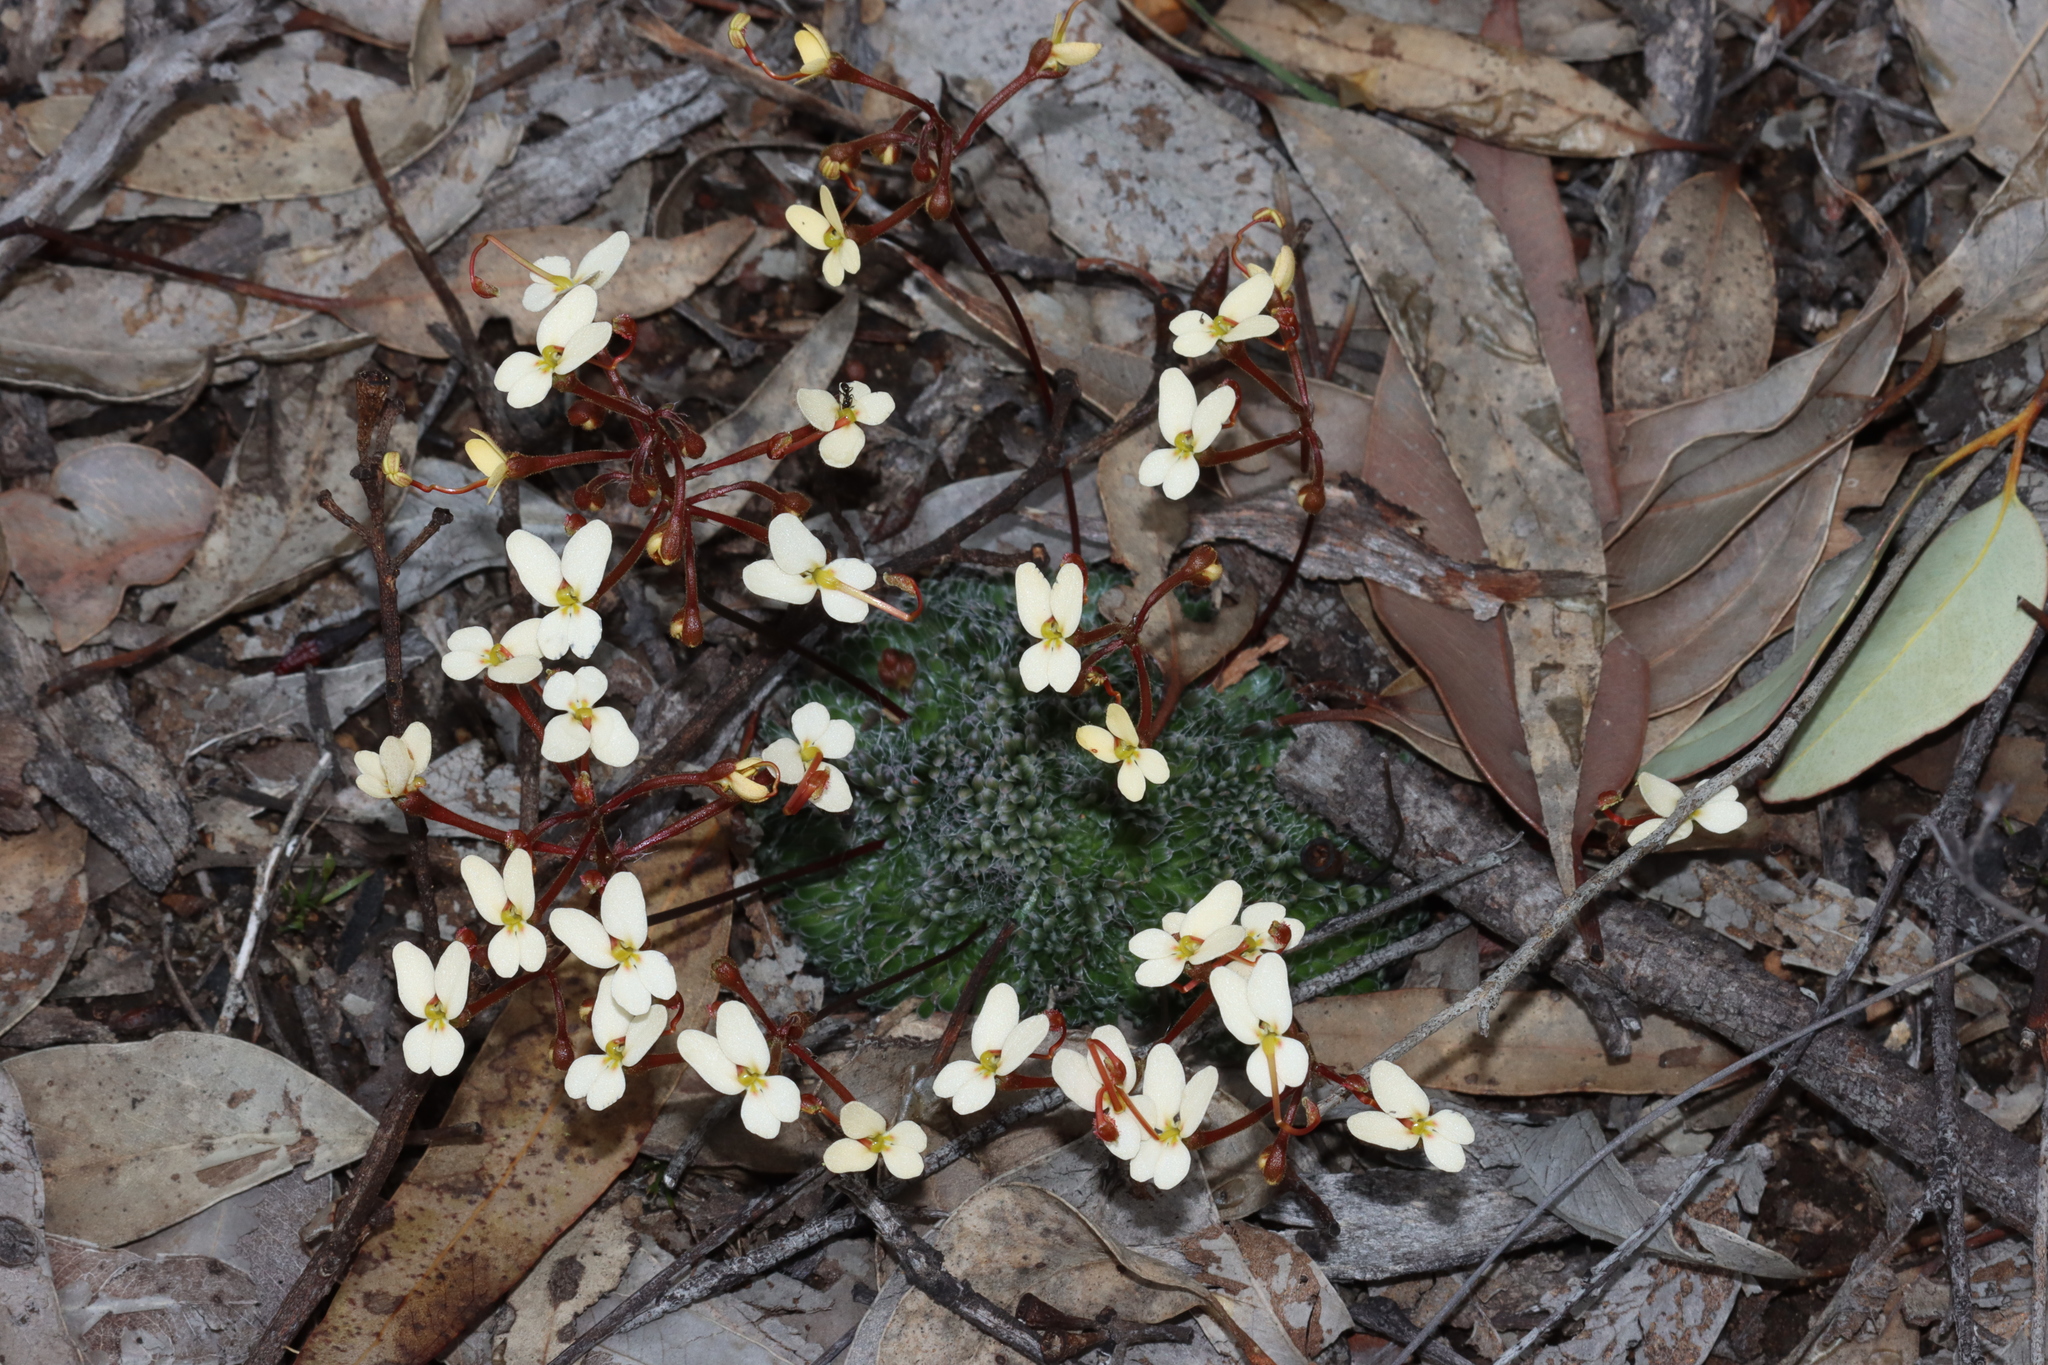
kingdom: Plantae
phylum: Tracheophyta
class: Magnoliopsida
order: Asterales
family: Stylidiaceae
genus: Stylidium
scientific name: Stylidium piliferum
